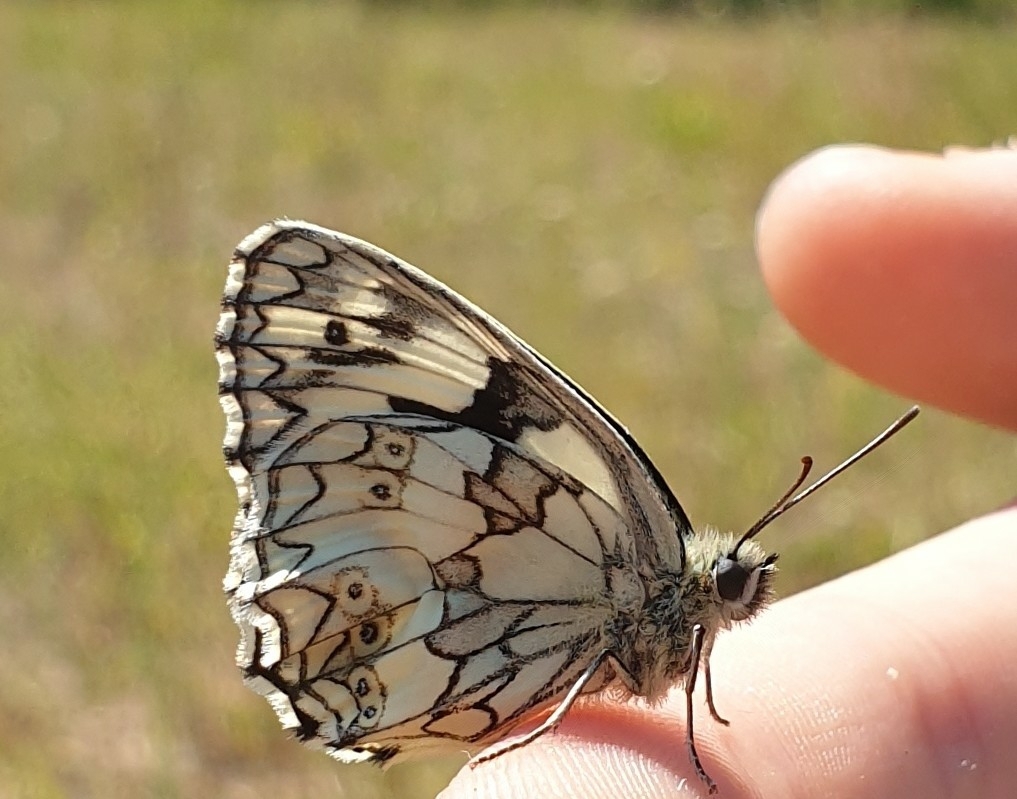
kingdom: Animalia
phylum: Arthropoda
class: Insecta
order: Lepidoptera
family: Nymphalidae
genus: Melanargia
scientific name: Melanargia galathea
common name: Marbled white
